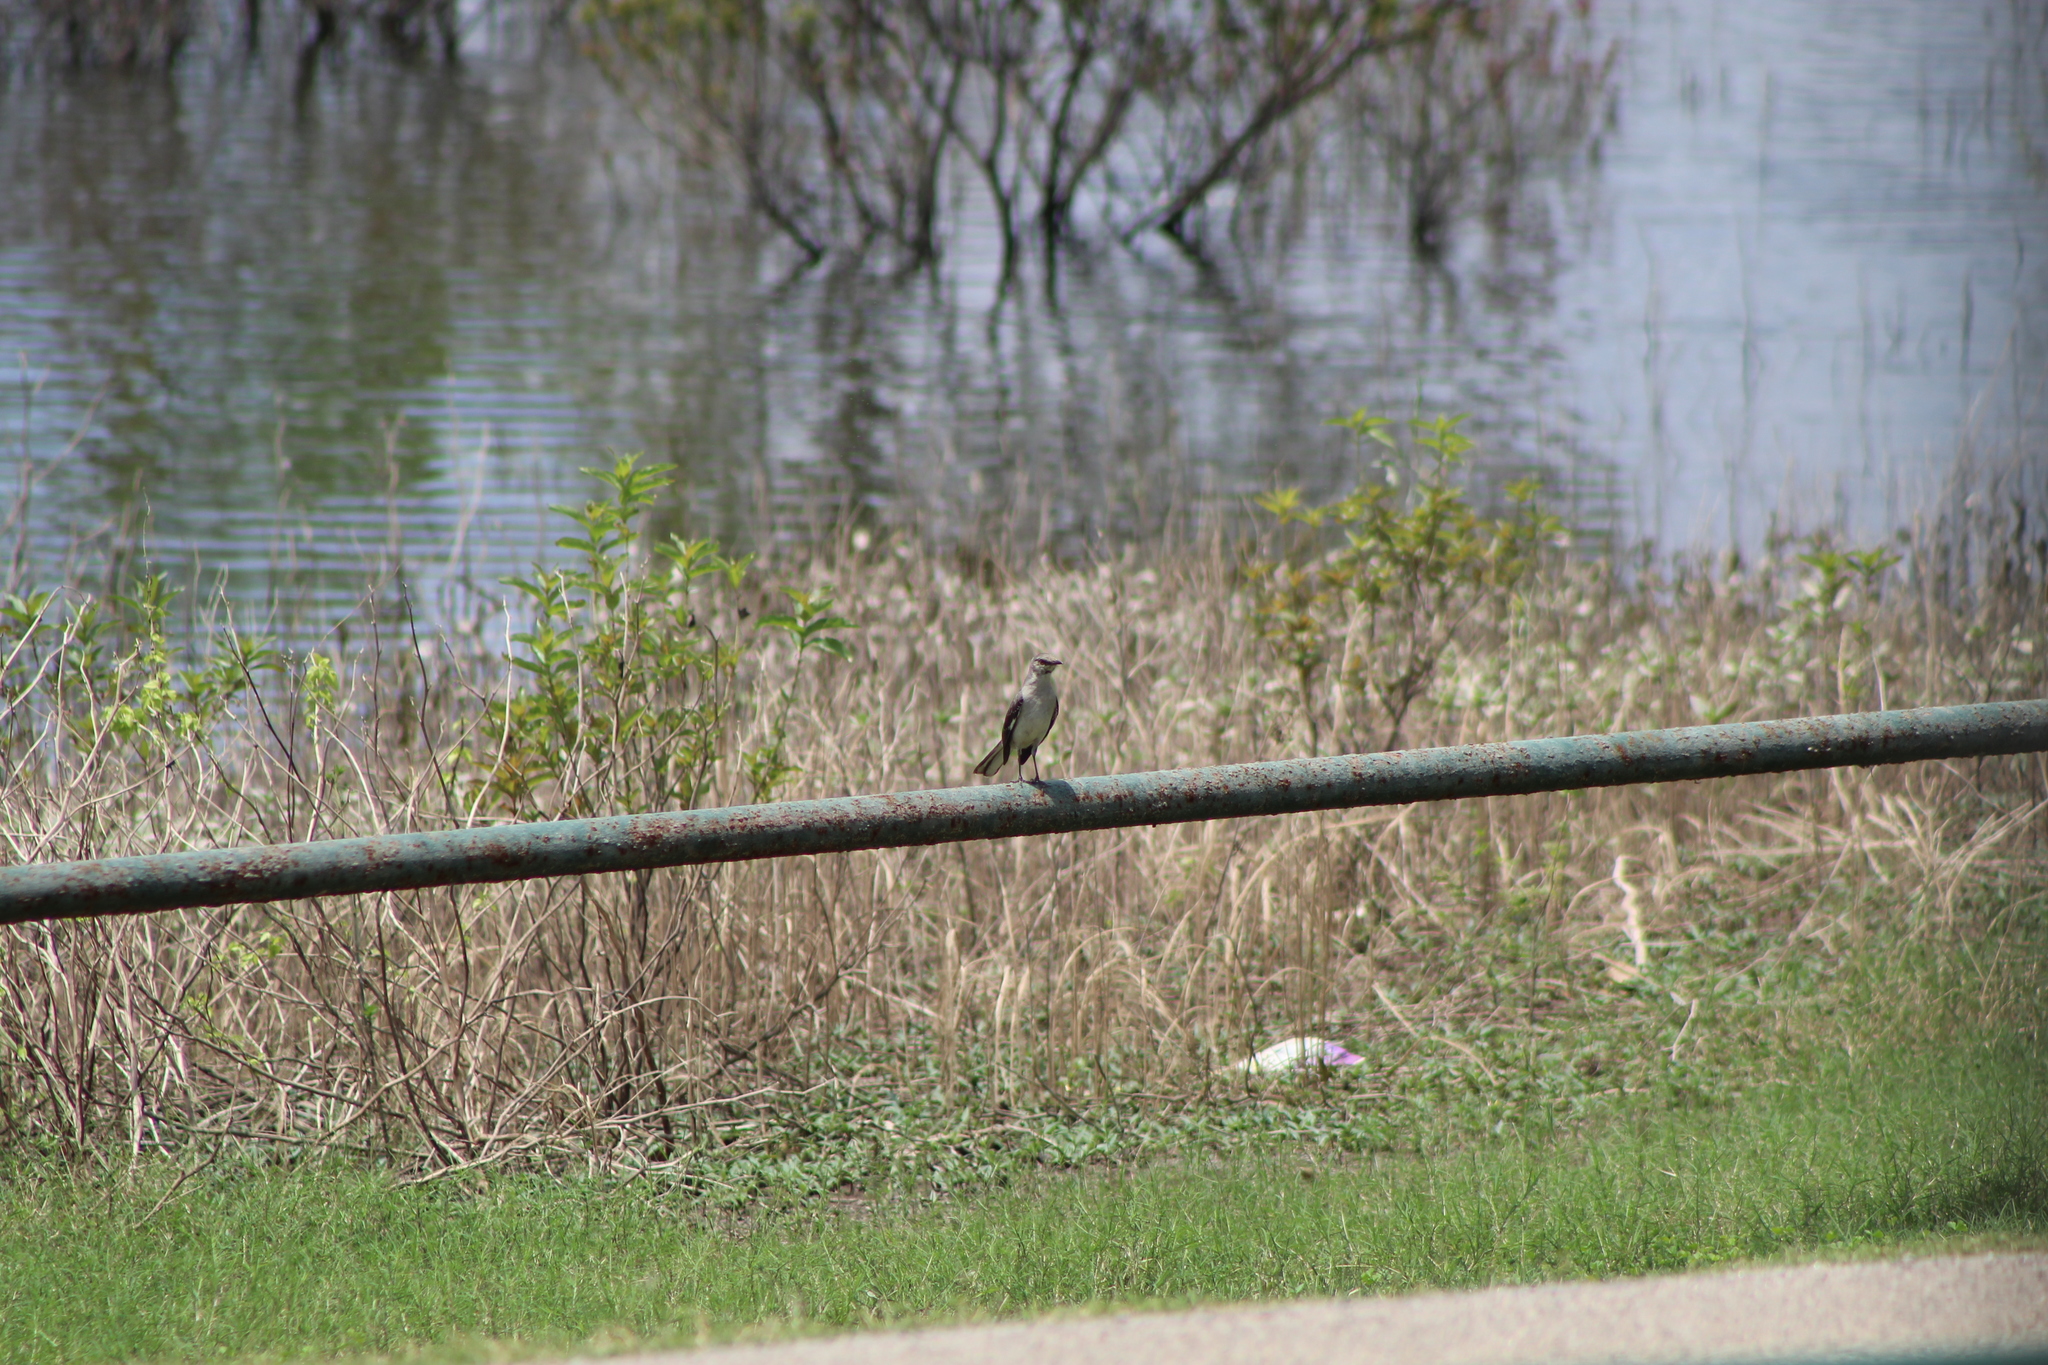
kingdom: Animalia
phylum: Chordata
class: Aves
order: Passeriformes
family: Mimidae
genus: Mimus
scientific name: Mimus polyglottos
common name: Northern mockingbird
